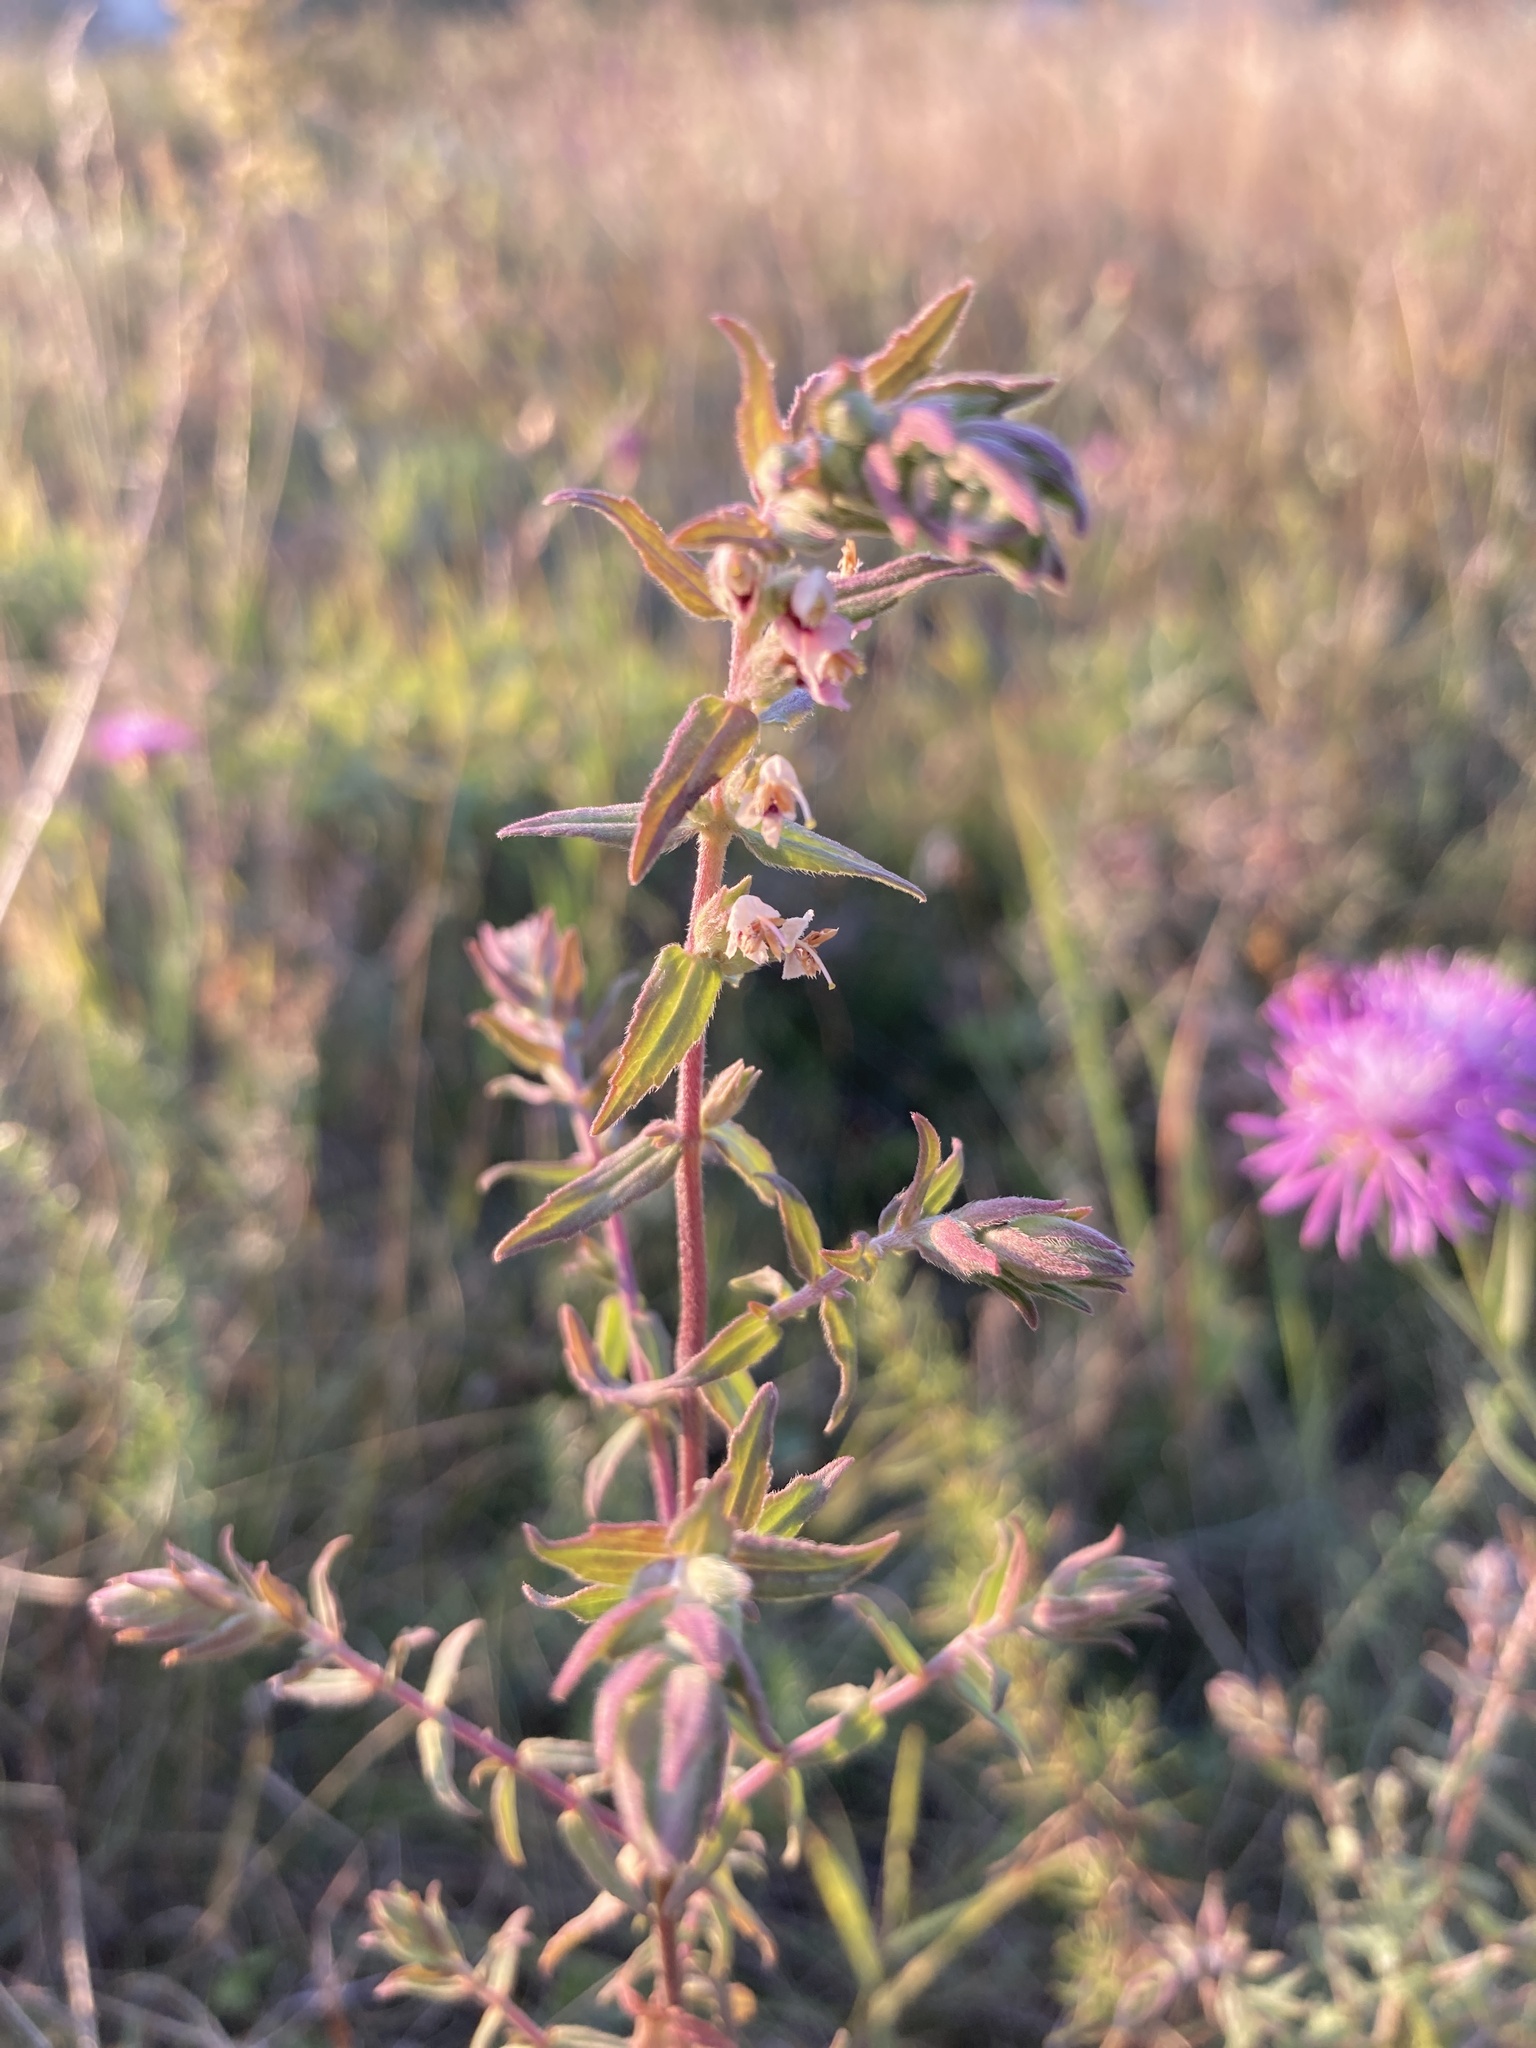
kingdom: Plantae
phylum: Tracheophyta
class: Magnoliopsida
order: Lamiales
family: Orobanchaceae
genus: Odontites
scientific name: Odontites vulgaris
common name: Broomrape
